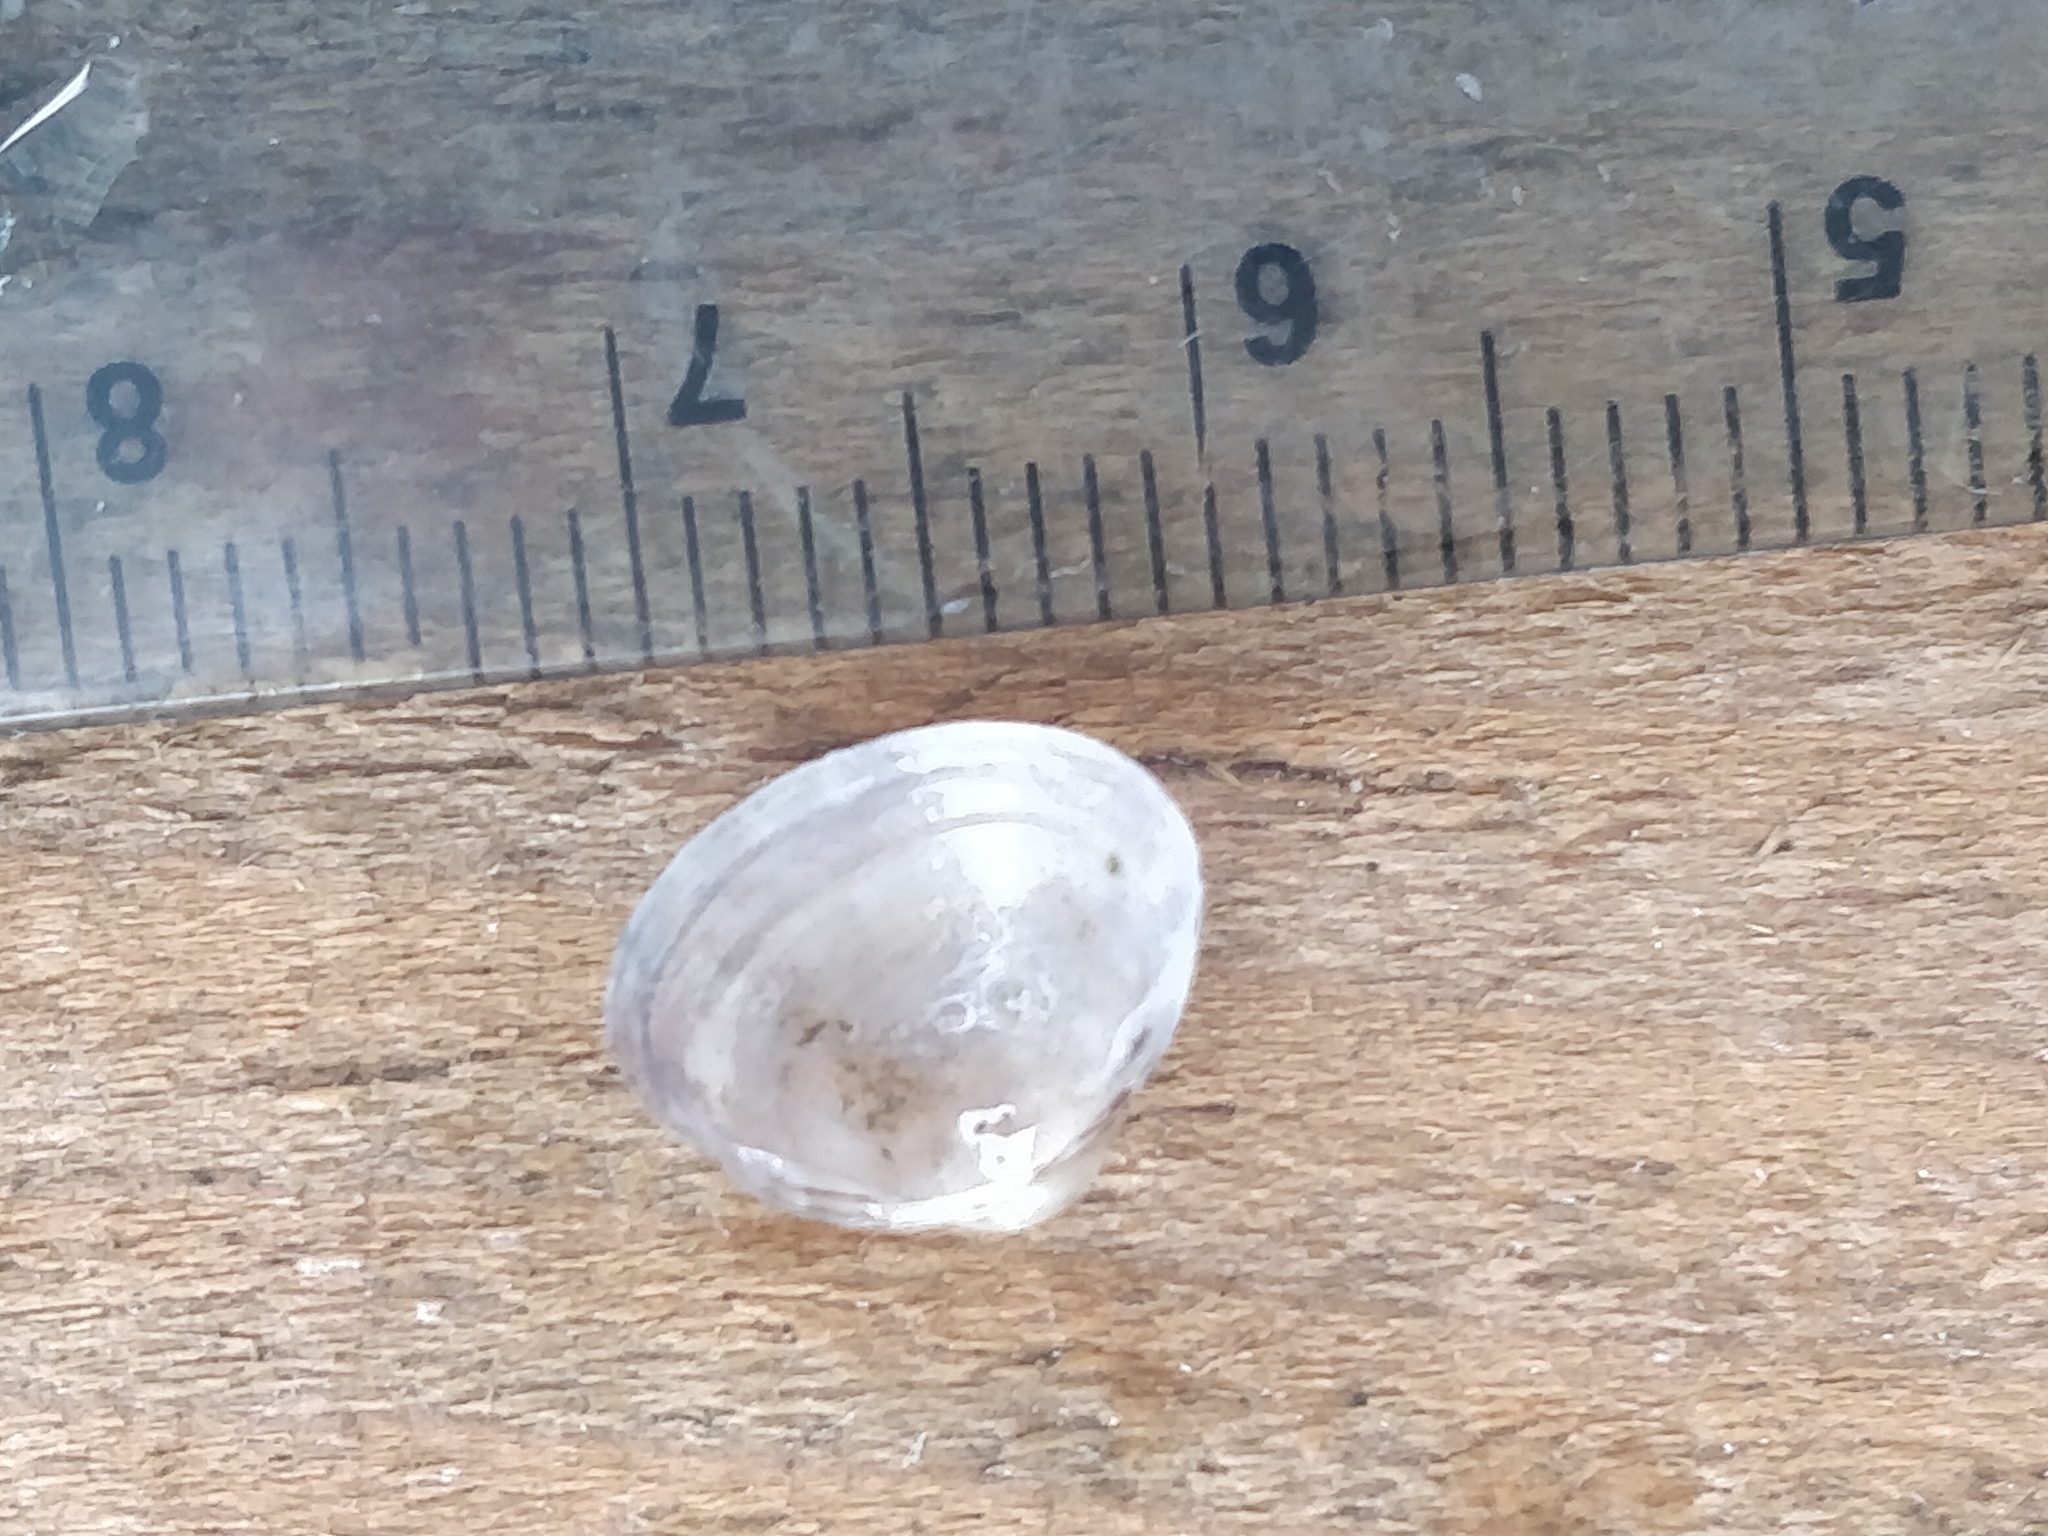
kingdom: Animalia
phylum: Mollusca
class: Bivalvia
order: Sphaeriida
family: Sphaeriidae
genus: Sphaerium
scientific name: Sphaerium striatinum
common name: Striated fingernailclam
